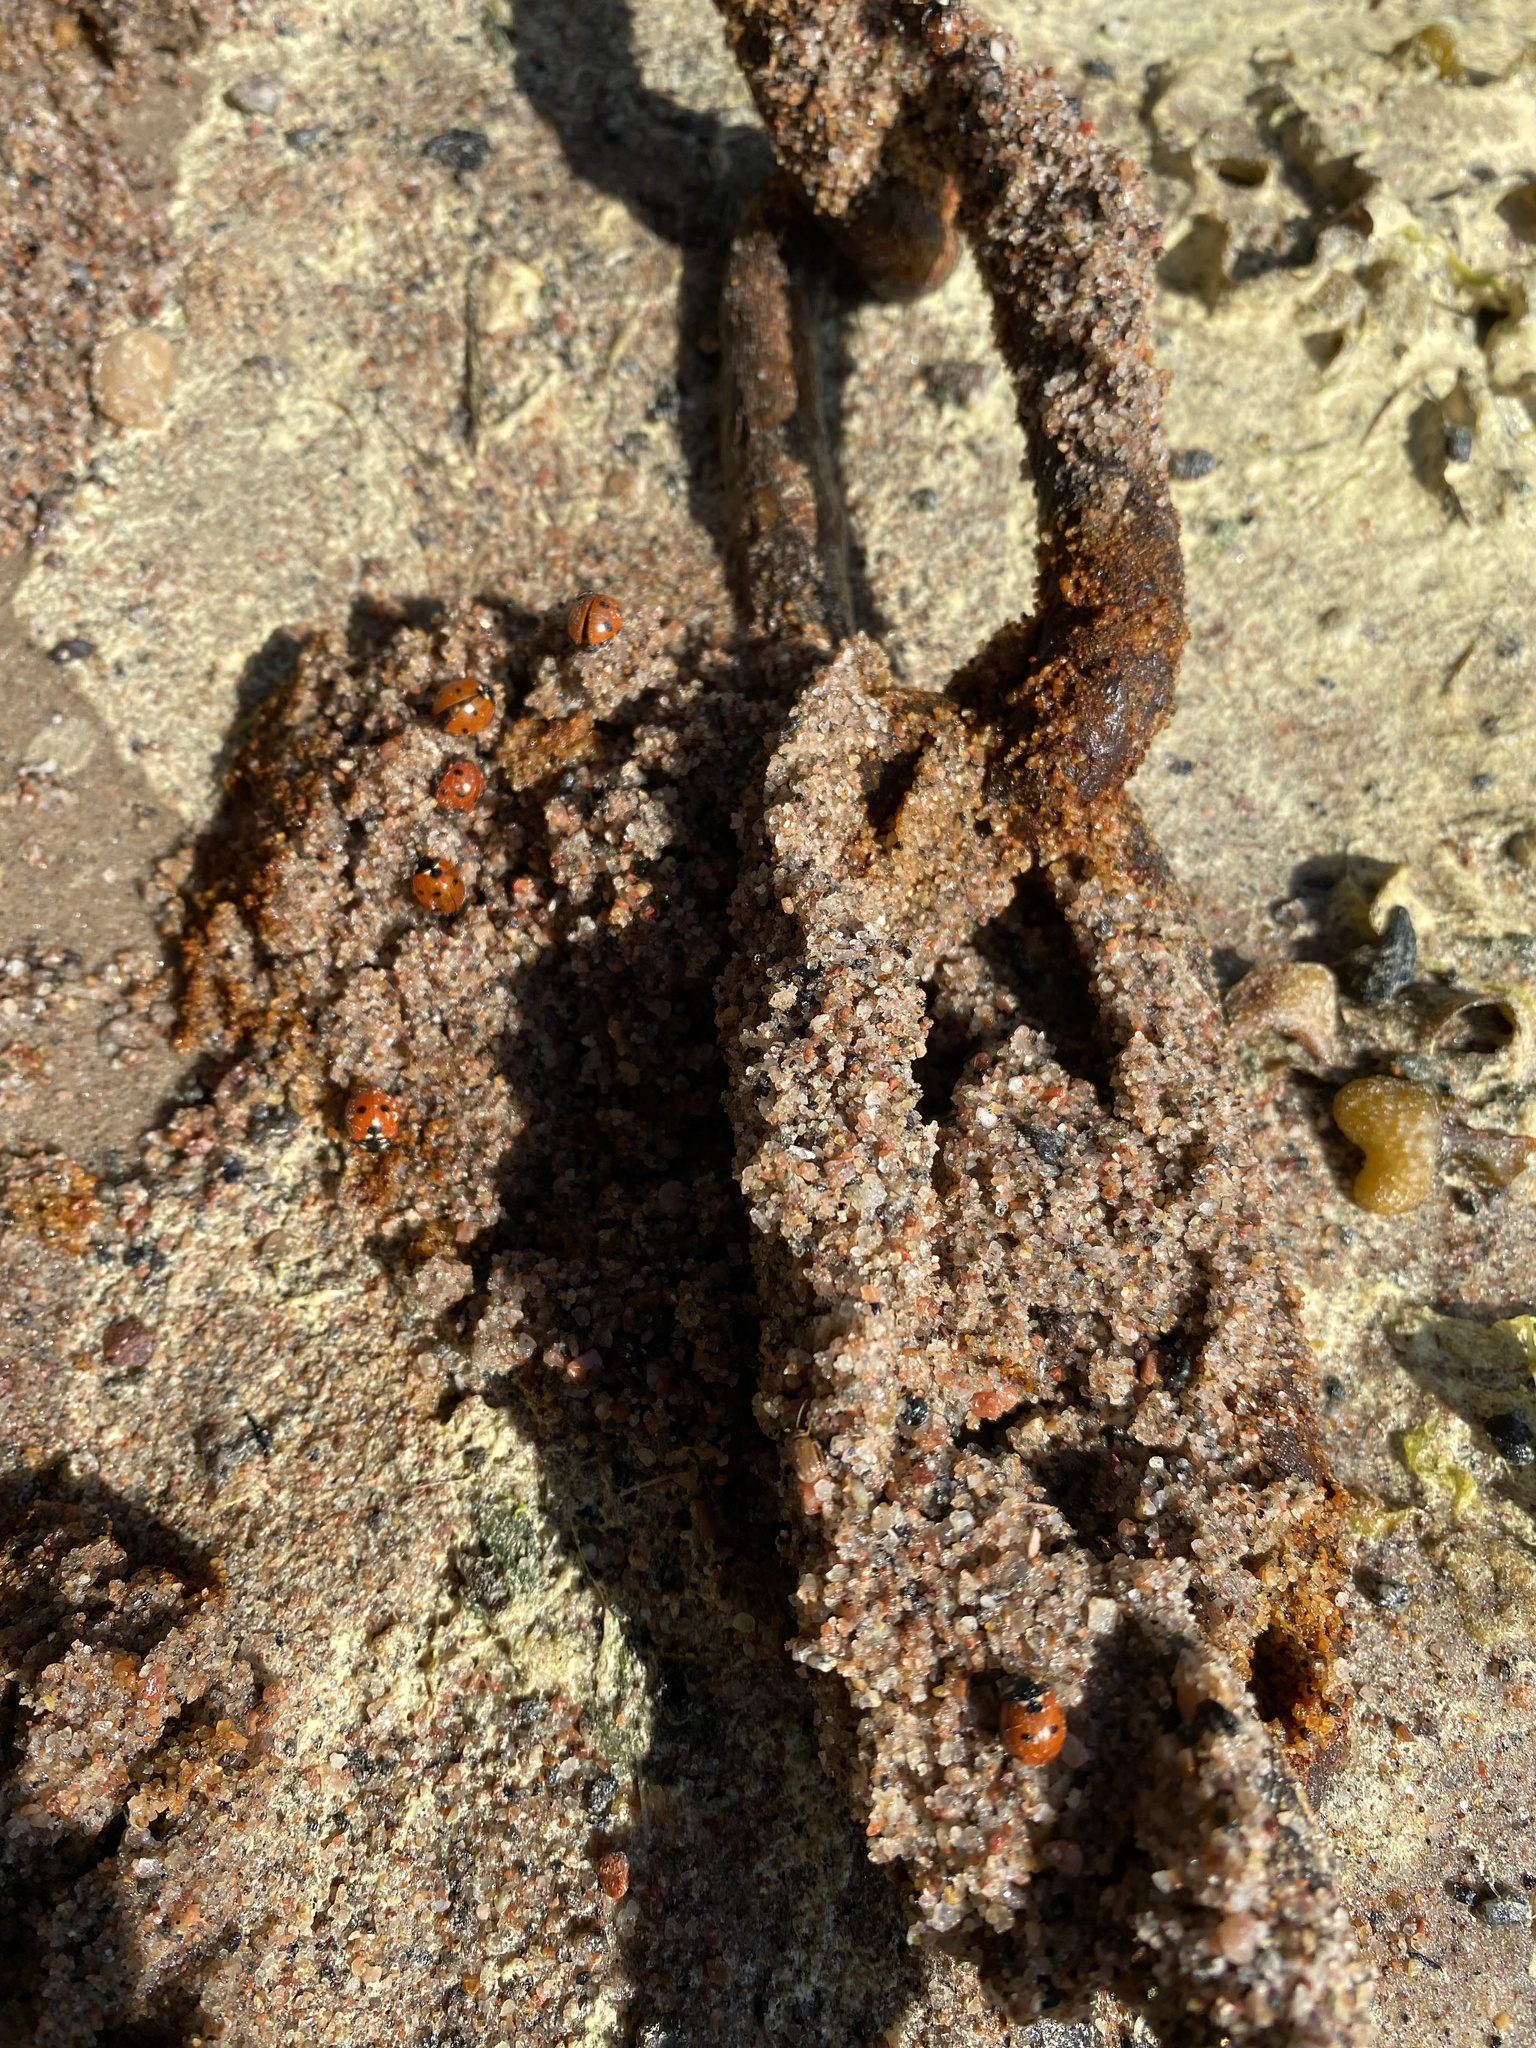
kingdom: Animalia
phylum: Arthropoda
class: Insecta
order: Coleoptera
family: Coccinellidae
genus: Coccinella
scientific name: Coccinella septempunctata
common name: Sevenspotted lady beetle
